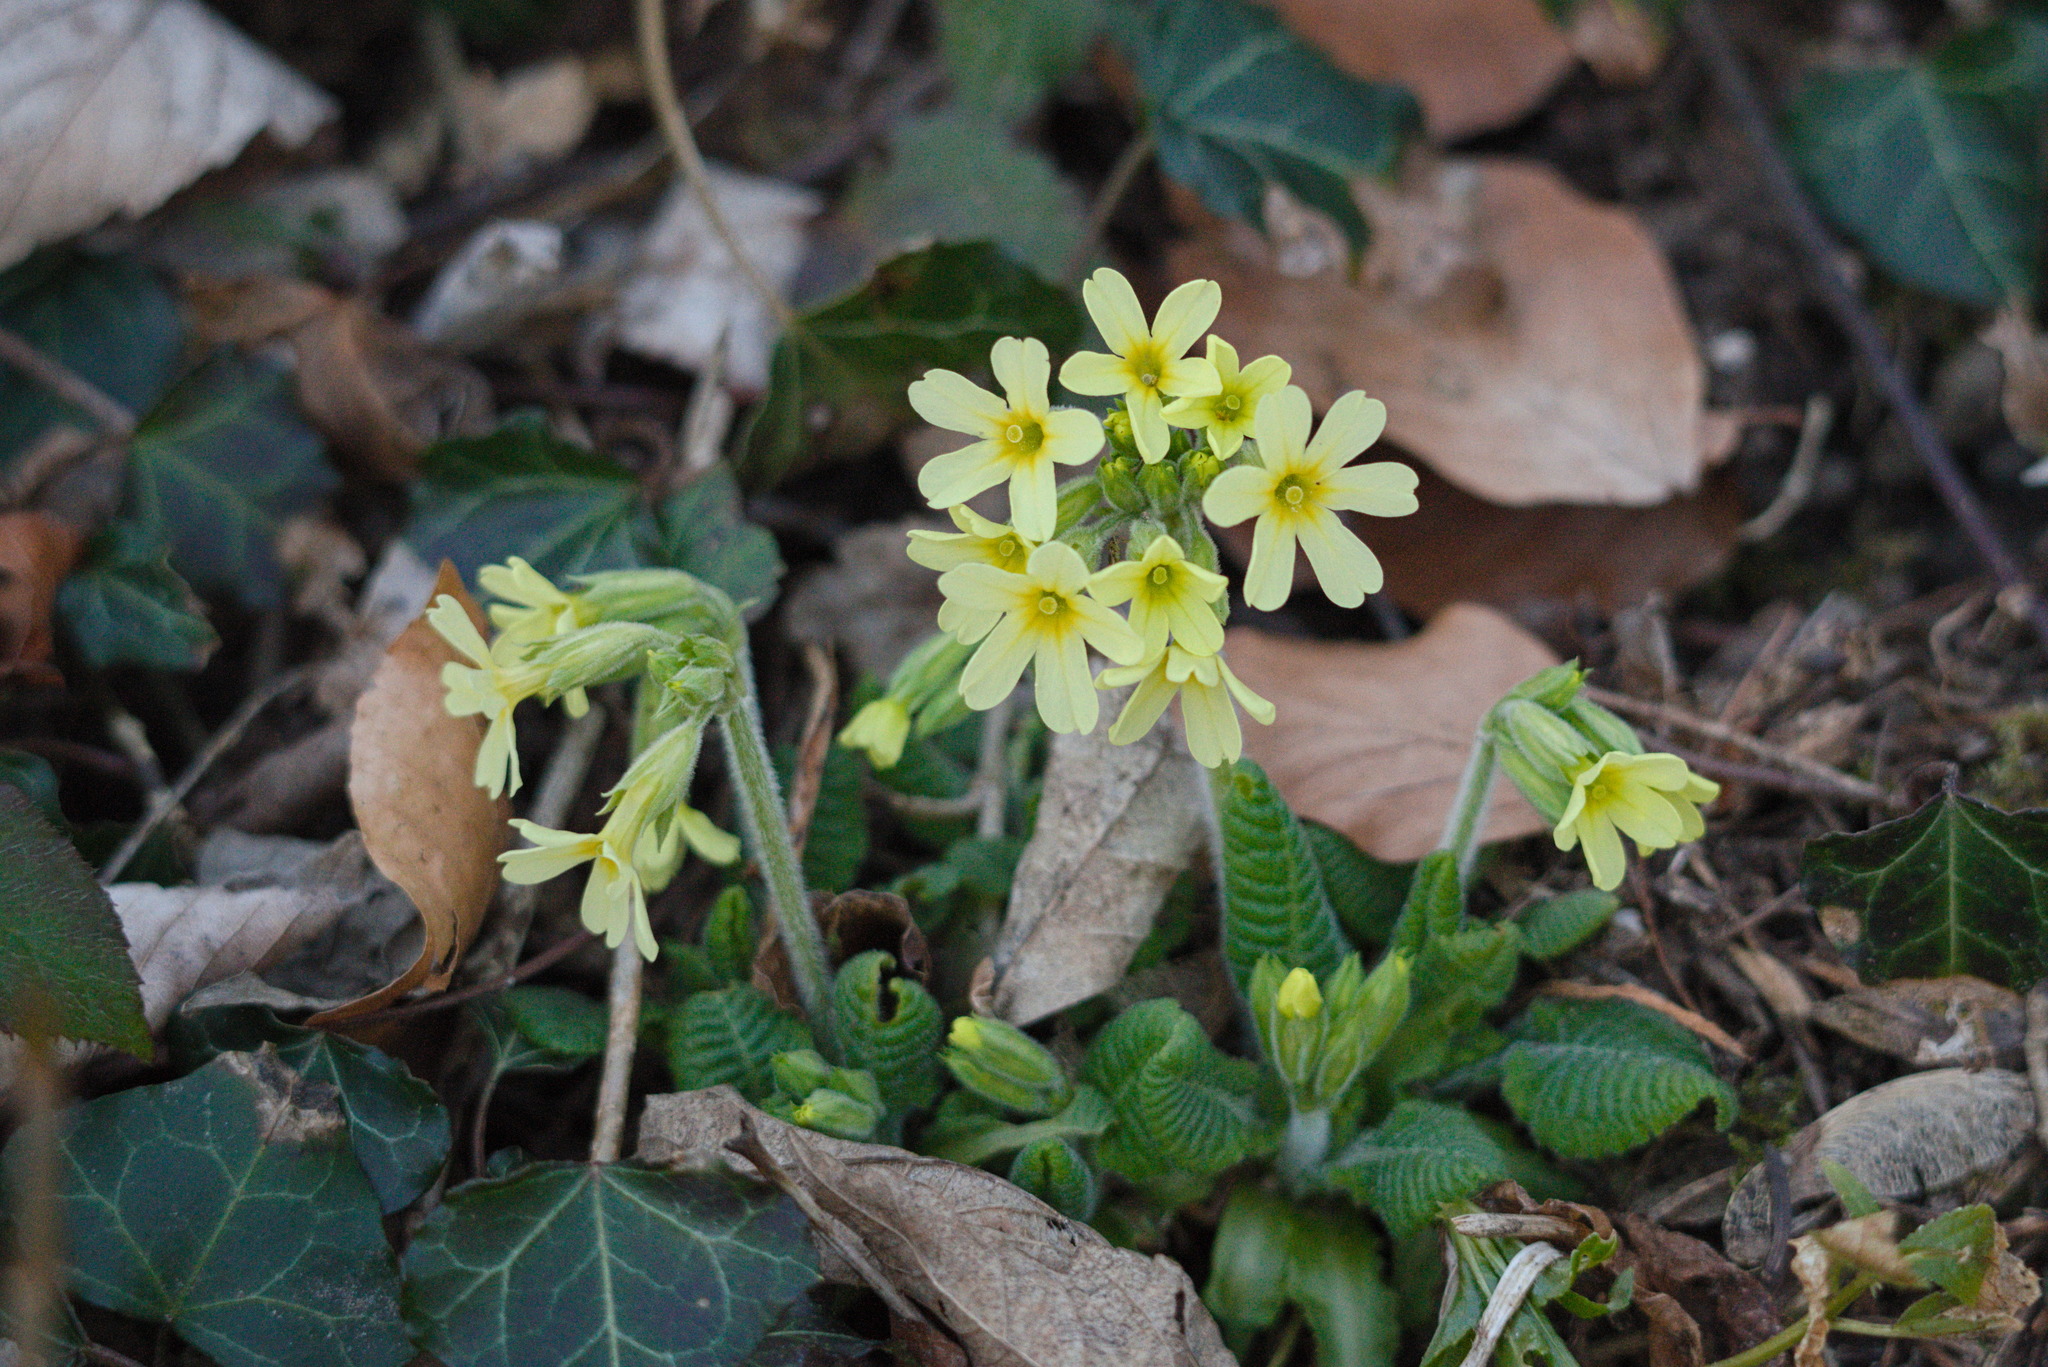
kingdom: Plantae
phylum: Tracheophyta
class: Magnoliopsida
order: Ericales
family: Primulaceae
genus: Primula
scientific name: Primula elatior
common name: Oxlip
